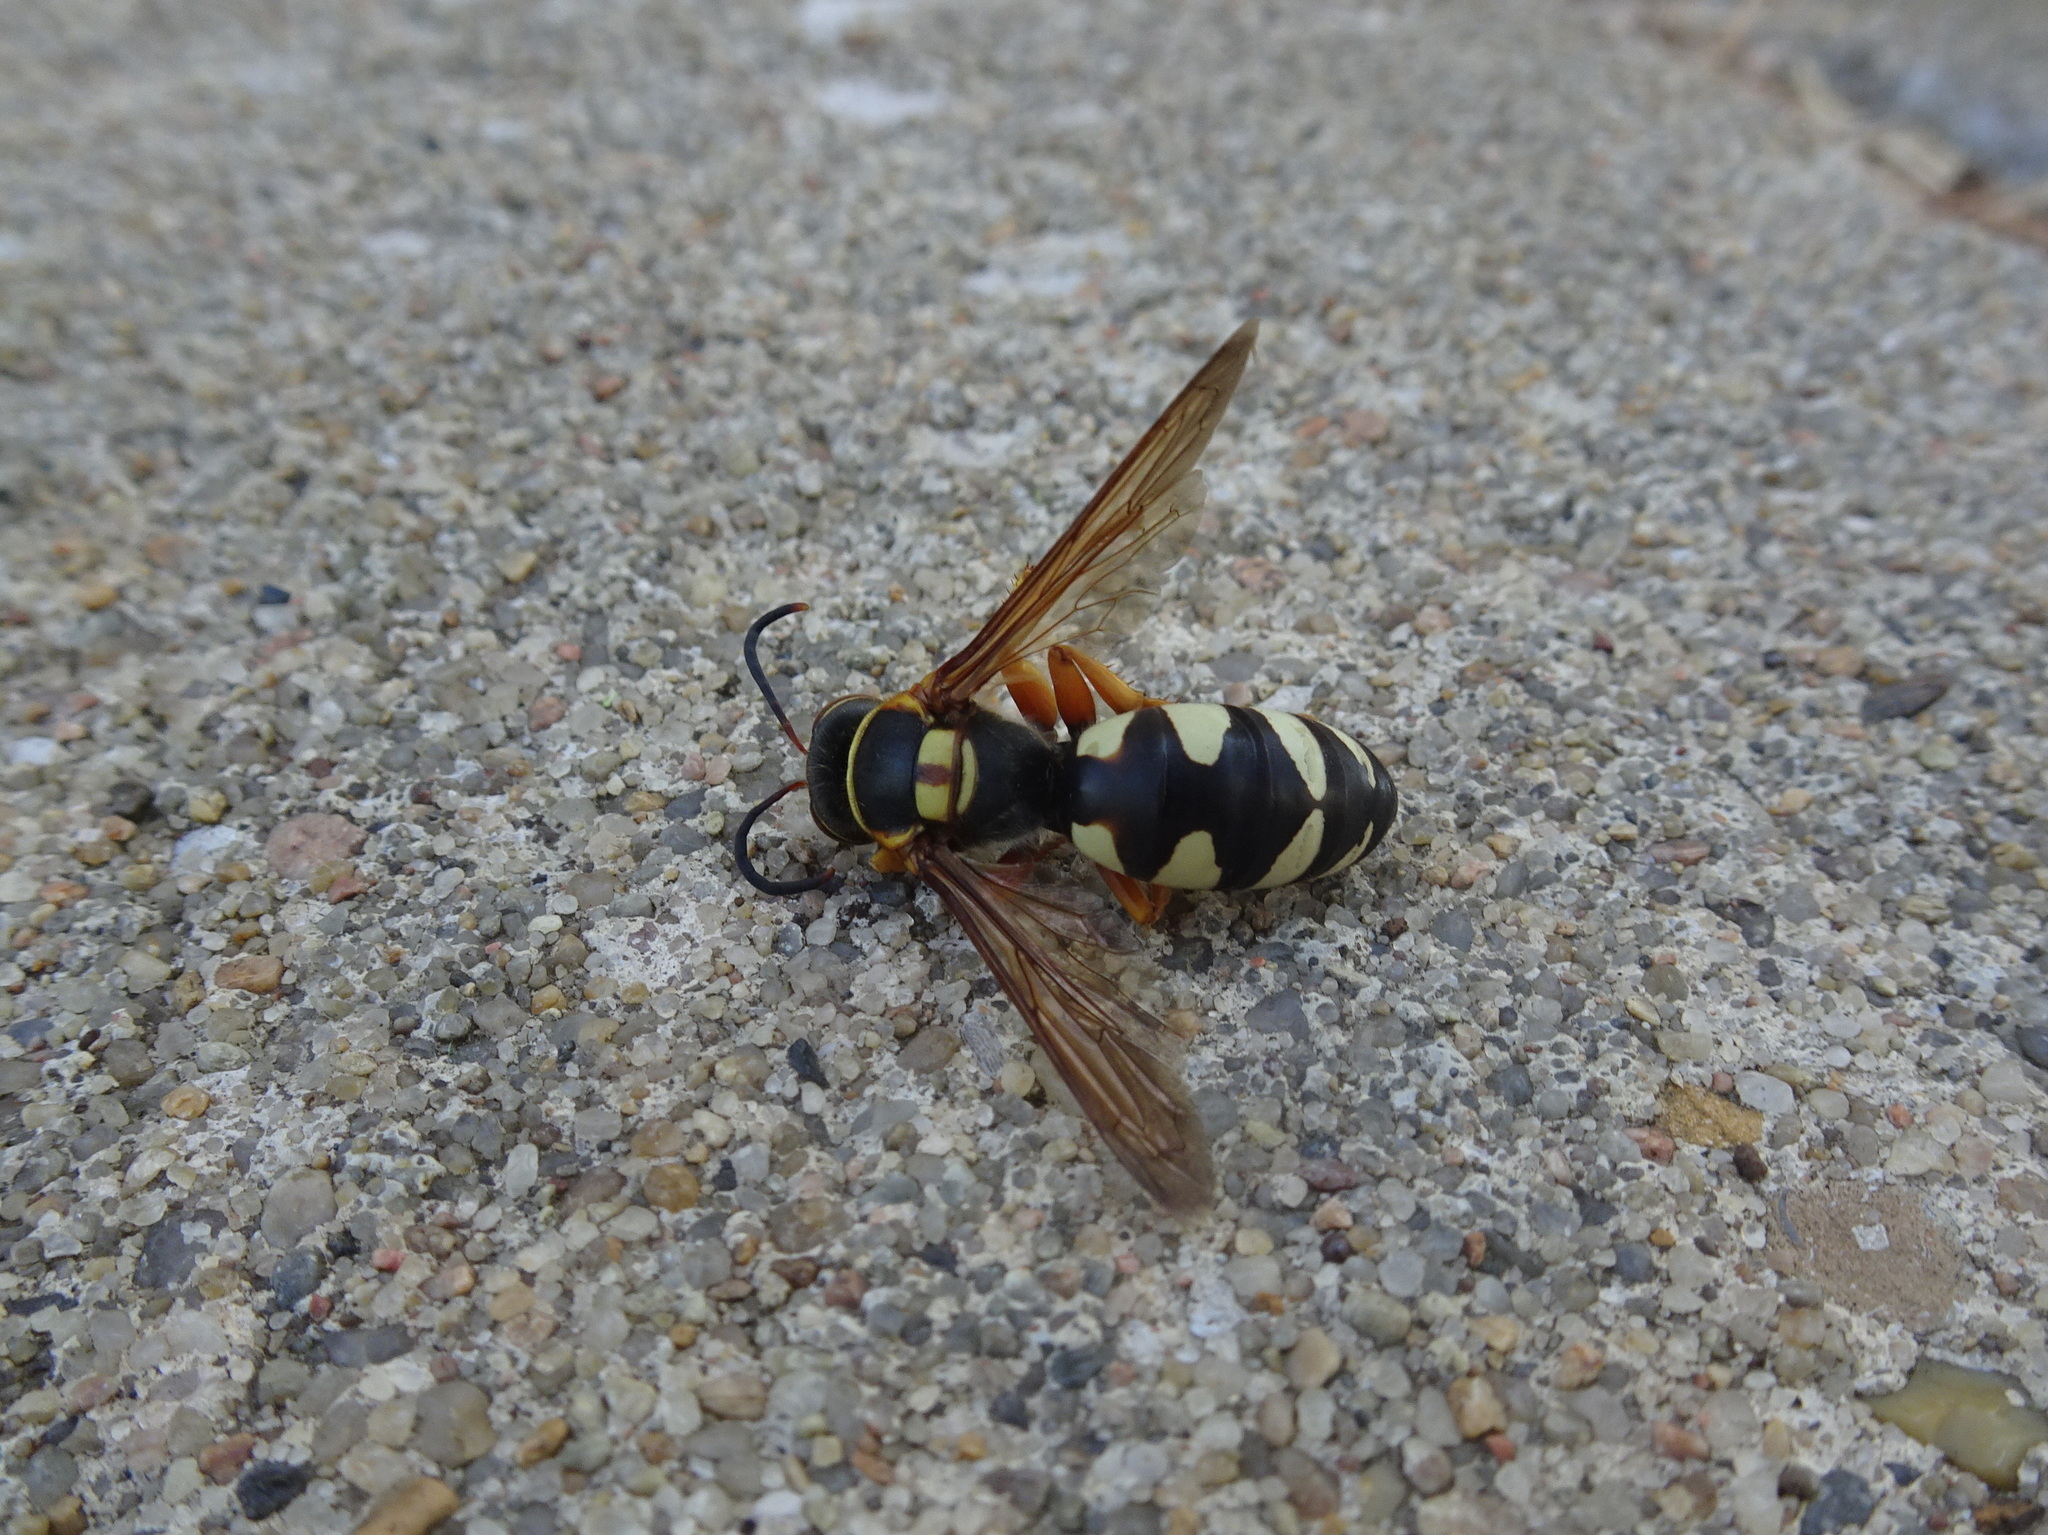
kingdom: Animalia
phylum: Arthropoda
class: Insecta
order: Hymenoptera
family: Crabronidae
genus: Stizus
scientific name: Stizus brevipennis
